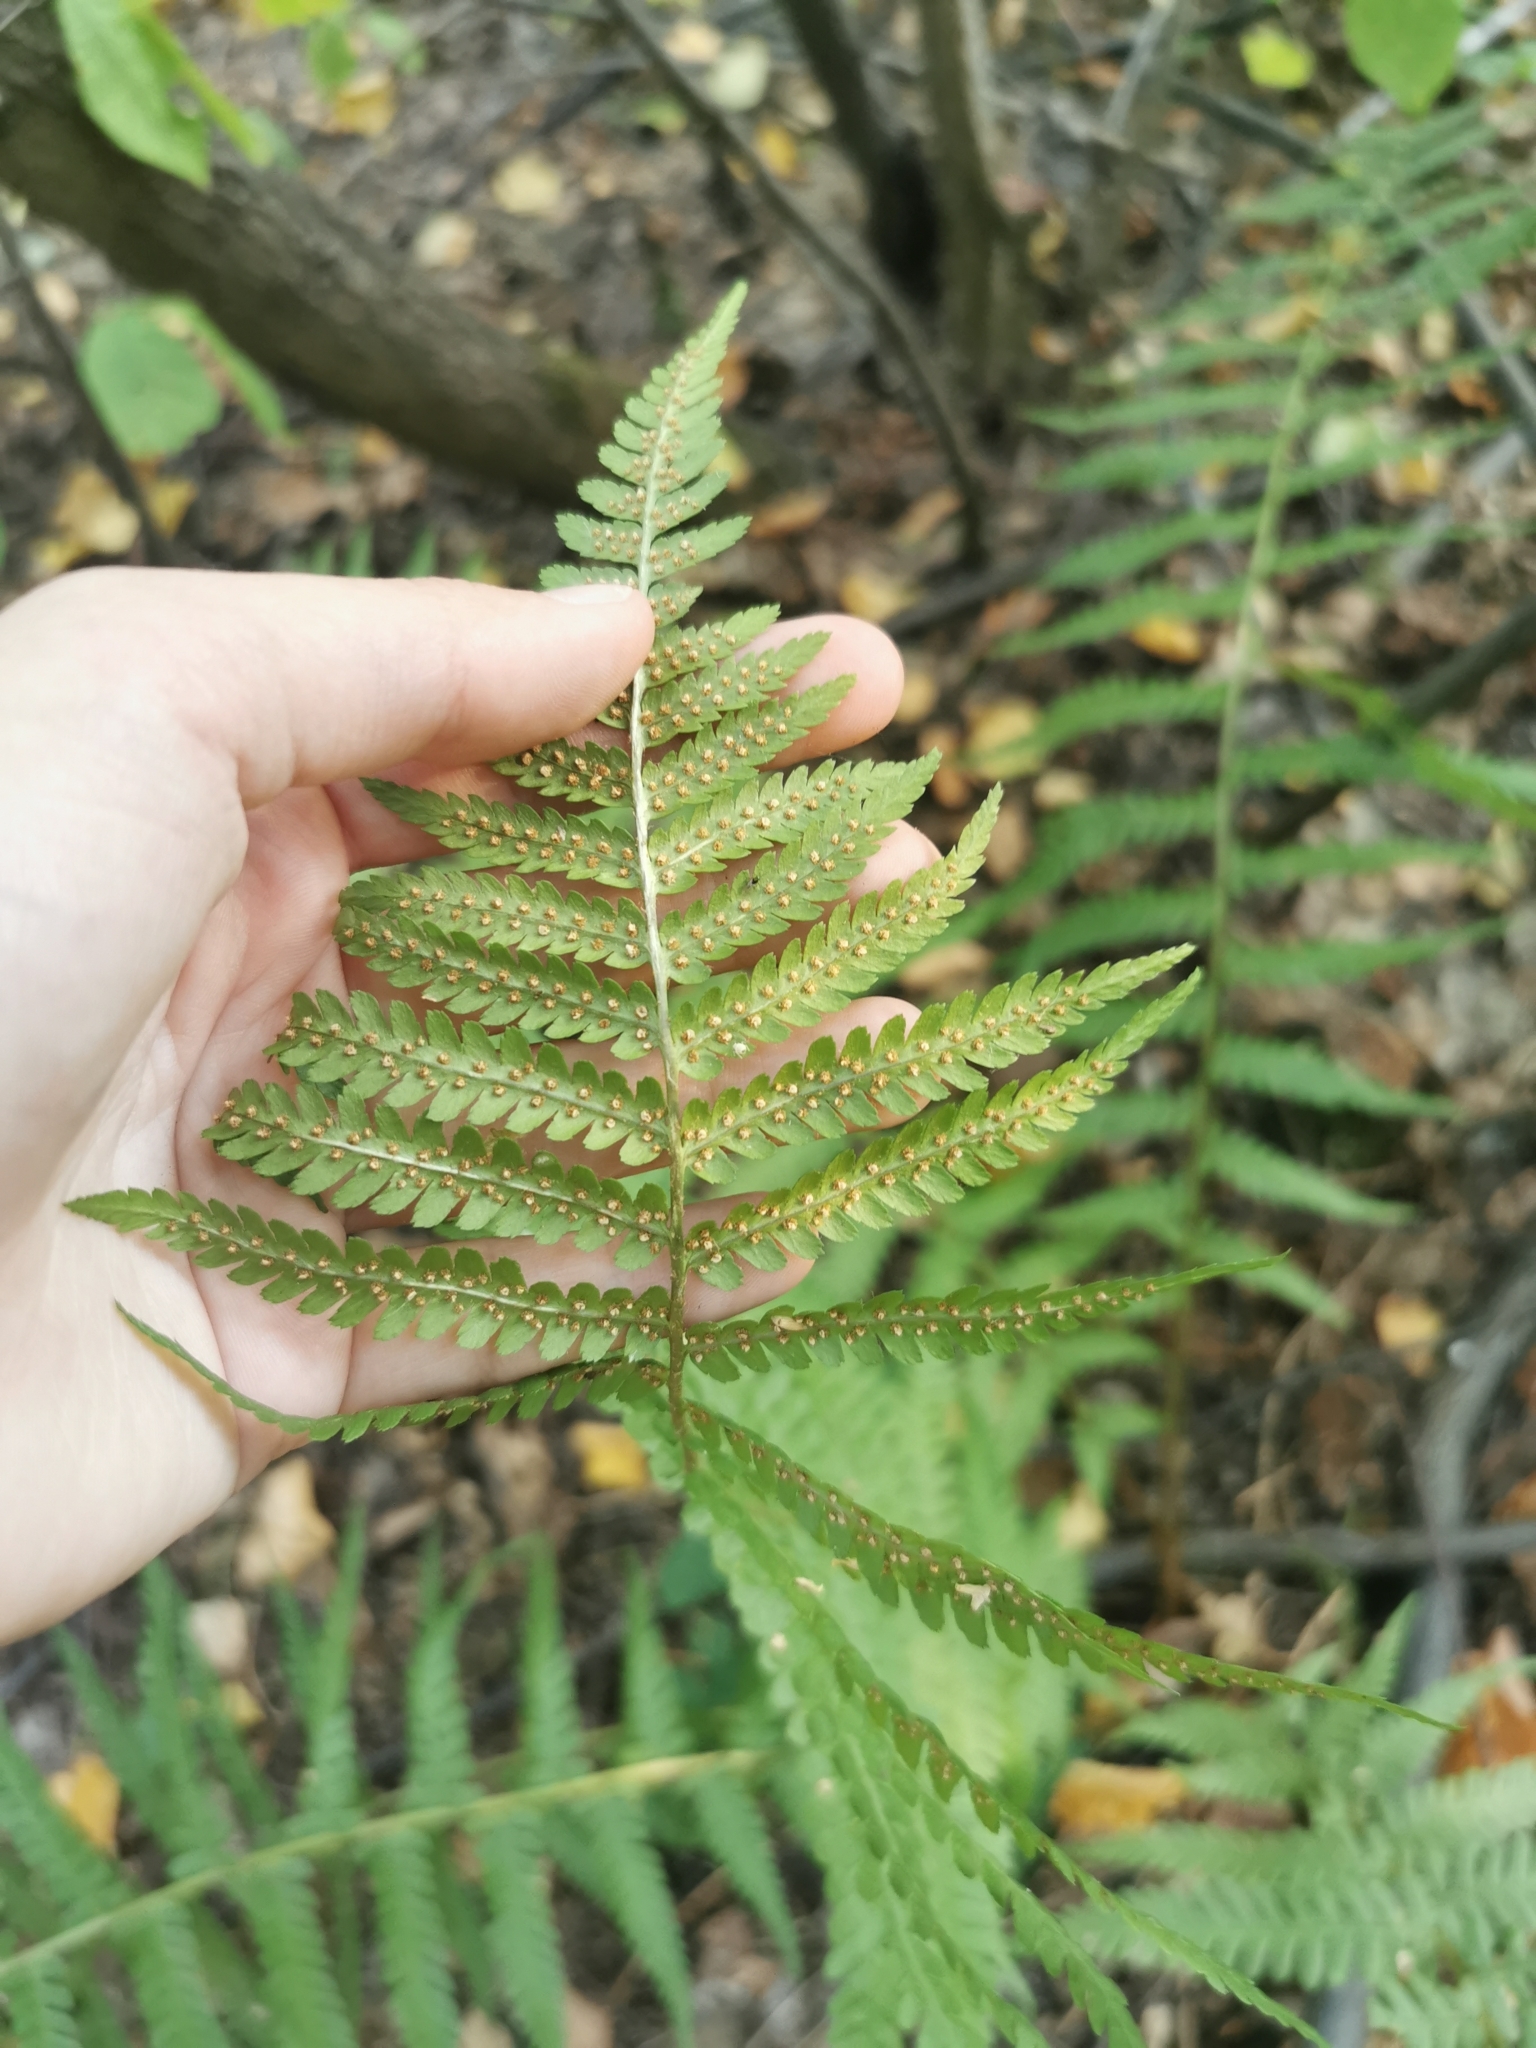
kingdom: Plantae
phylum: Tracheophyta
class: Polypodiopsida
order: Polypodiales
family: Dryopteridaceae
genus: Dryopteris
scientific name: Dryopteris filix-mas
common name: Male fern
